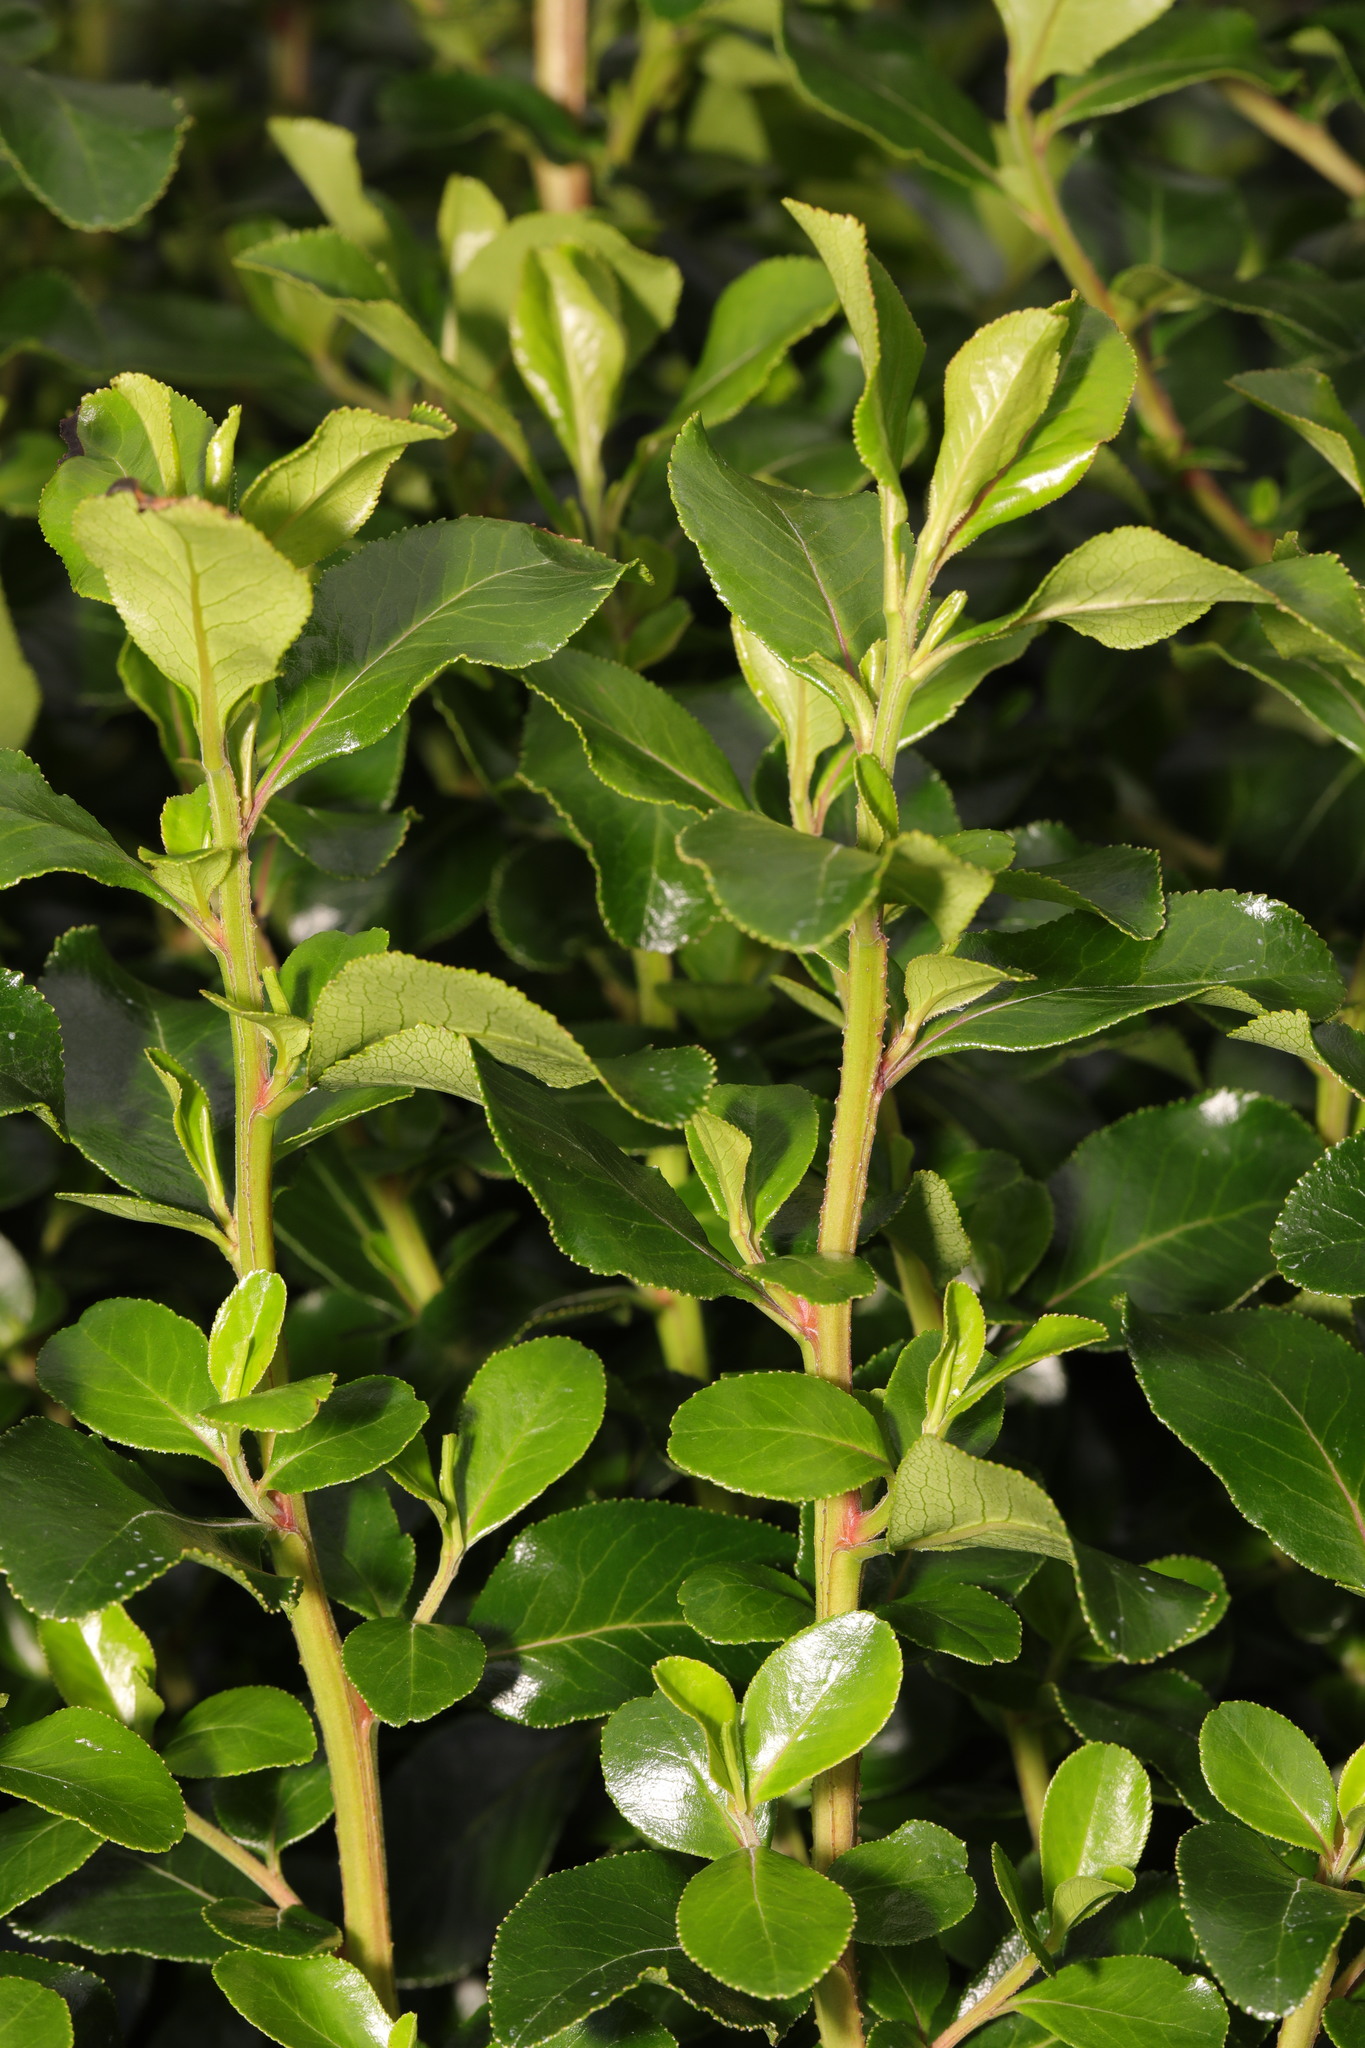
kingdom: Plantae
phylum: Tracheophyta
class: Magnoliopsida
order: Celastrales
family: Celastraceae
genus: Euonymus
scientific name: Euonymus japonicus
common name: Japanese spindletree
